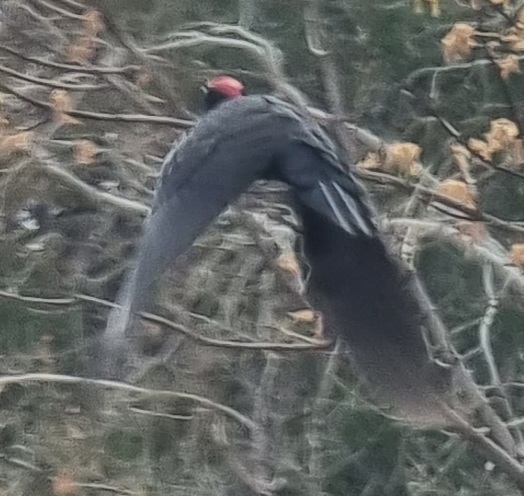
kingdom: Animalia
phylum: Chordata
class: Aves
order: Piciformes
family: Picidae
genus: Dryocopus
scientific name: Dryocopus martius
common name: Black woodpecker
